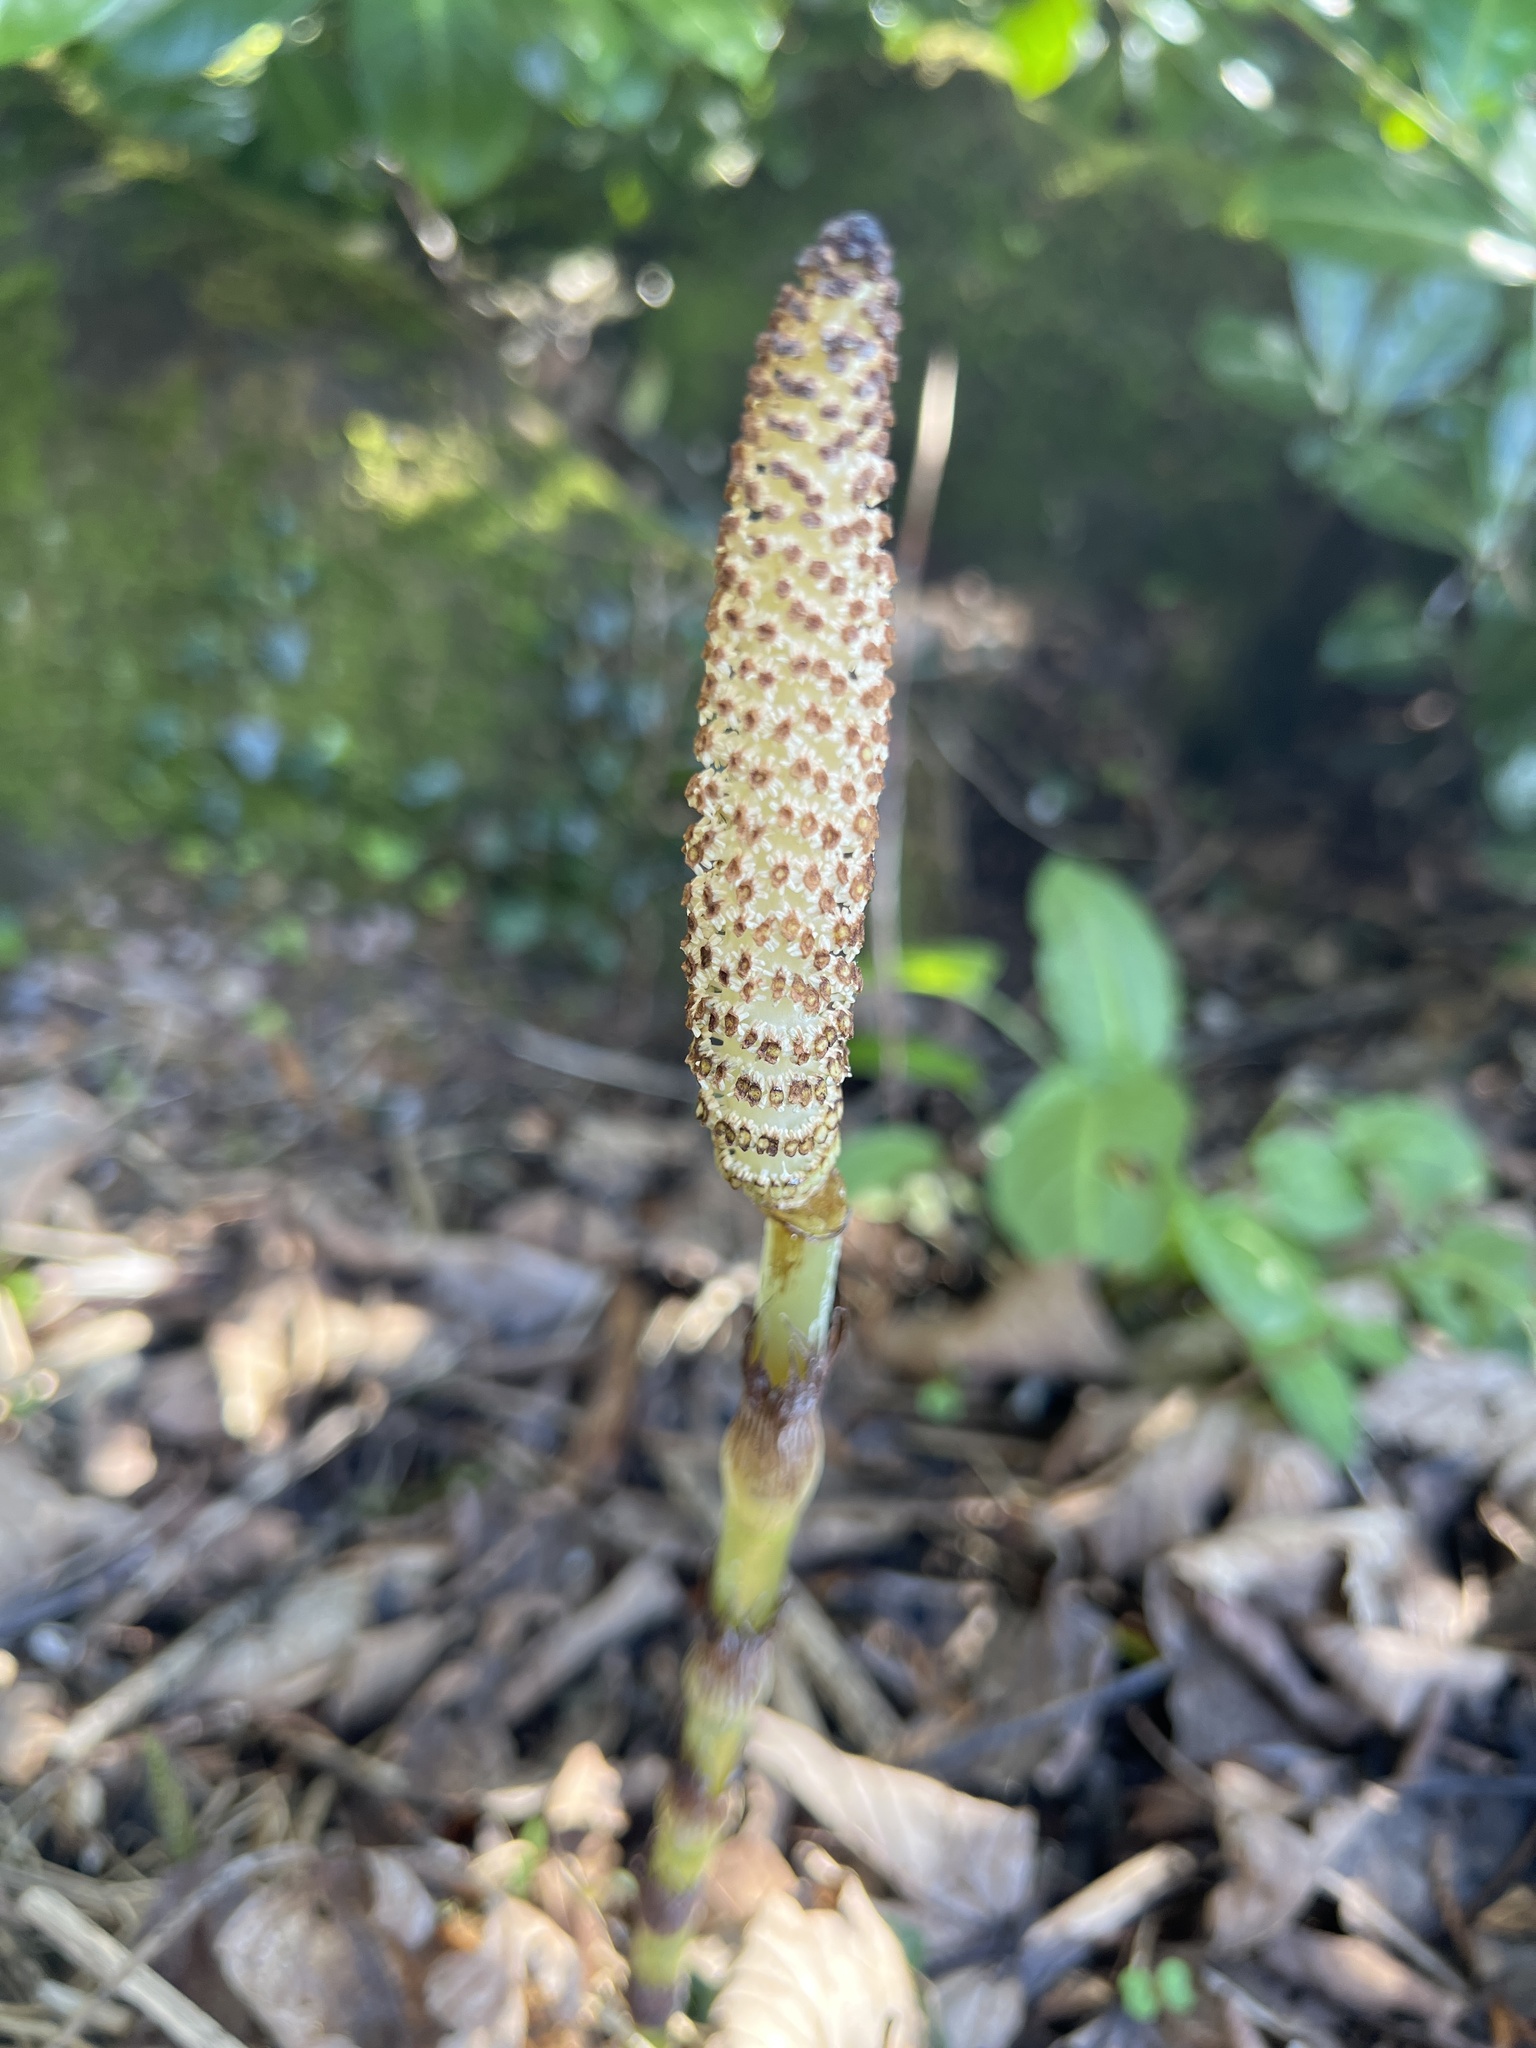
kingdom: Plantae
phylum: Tracheophyta
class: Polypodiopsida
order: Equisetales
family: Equisetaceae
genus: Equisetum
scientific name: Equisetum telmateia
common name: Great horsetail
